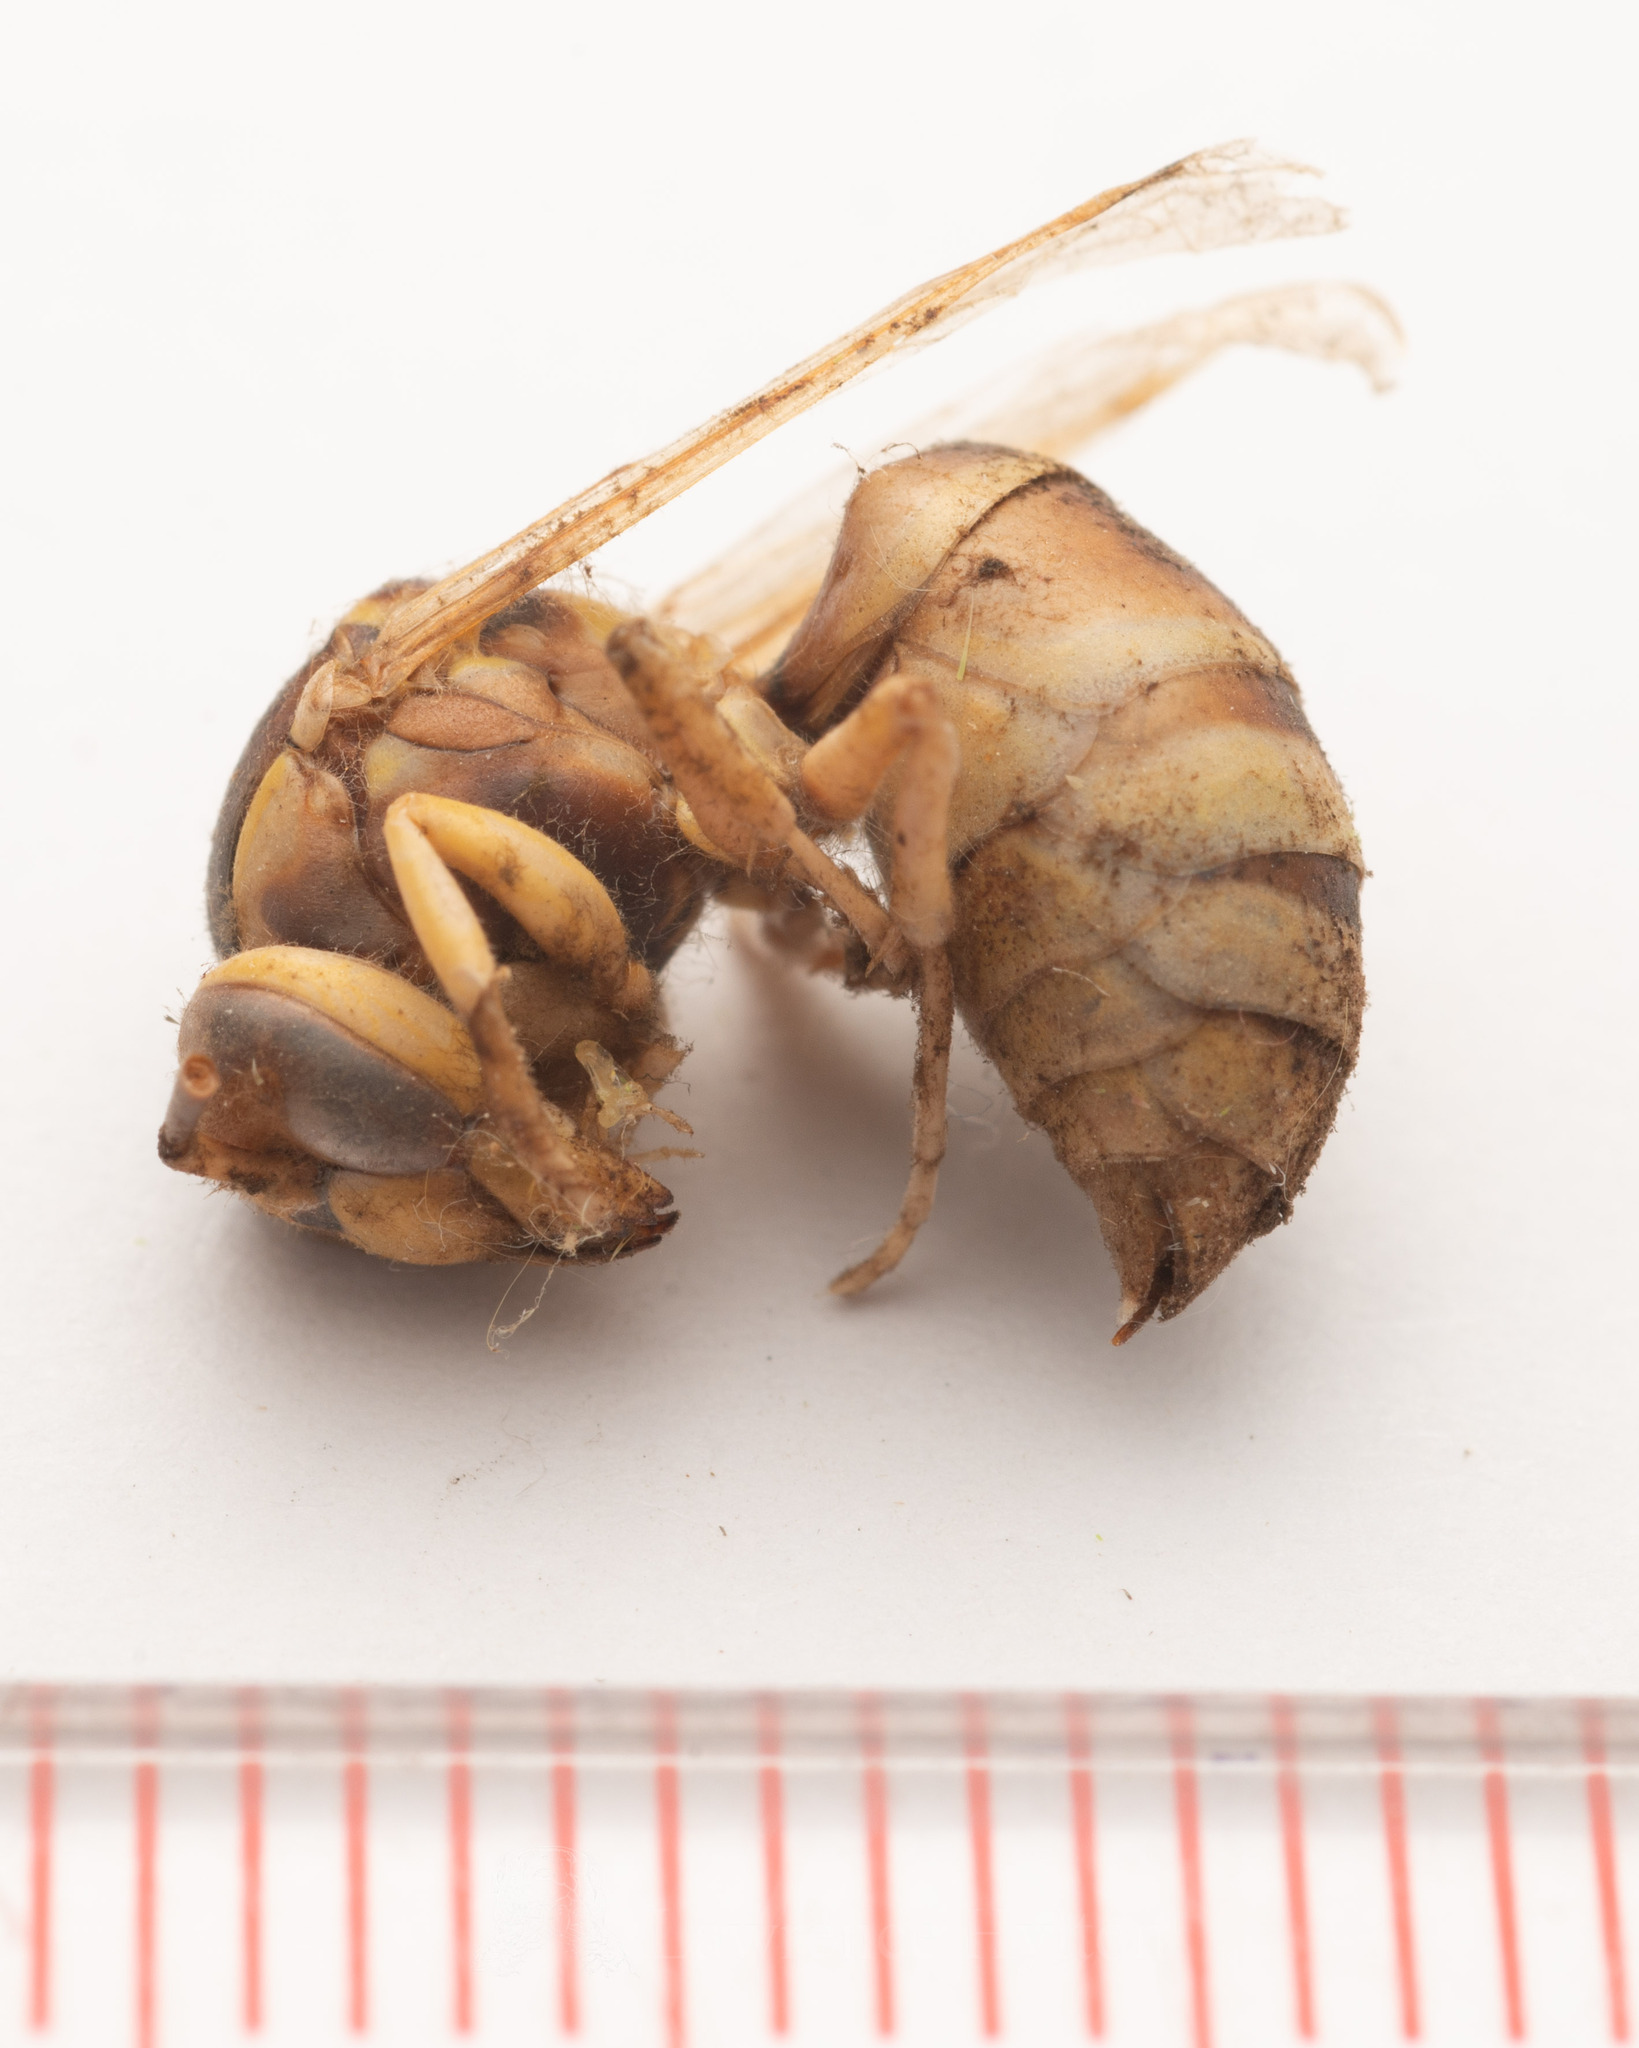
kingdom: Animalia
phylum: Arthropoda
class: Insecta
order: Hymenoptera
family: Vespidae
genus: Vespa
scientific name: Vespa bicolor
